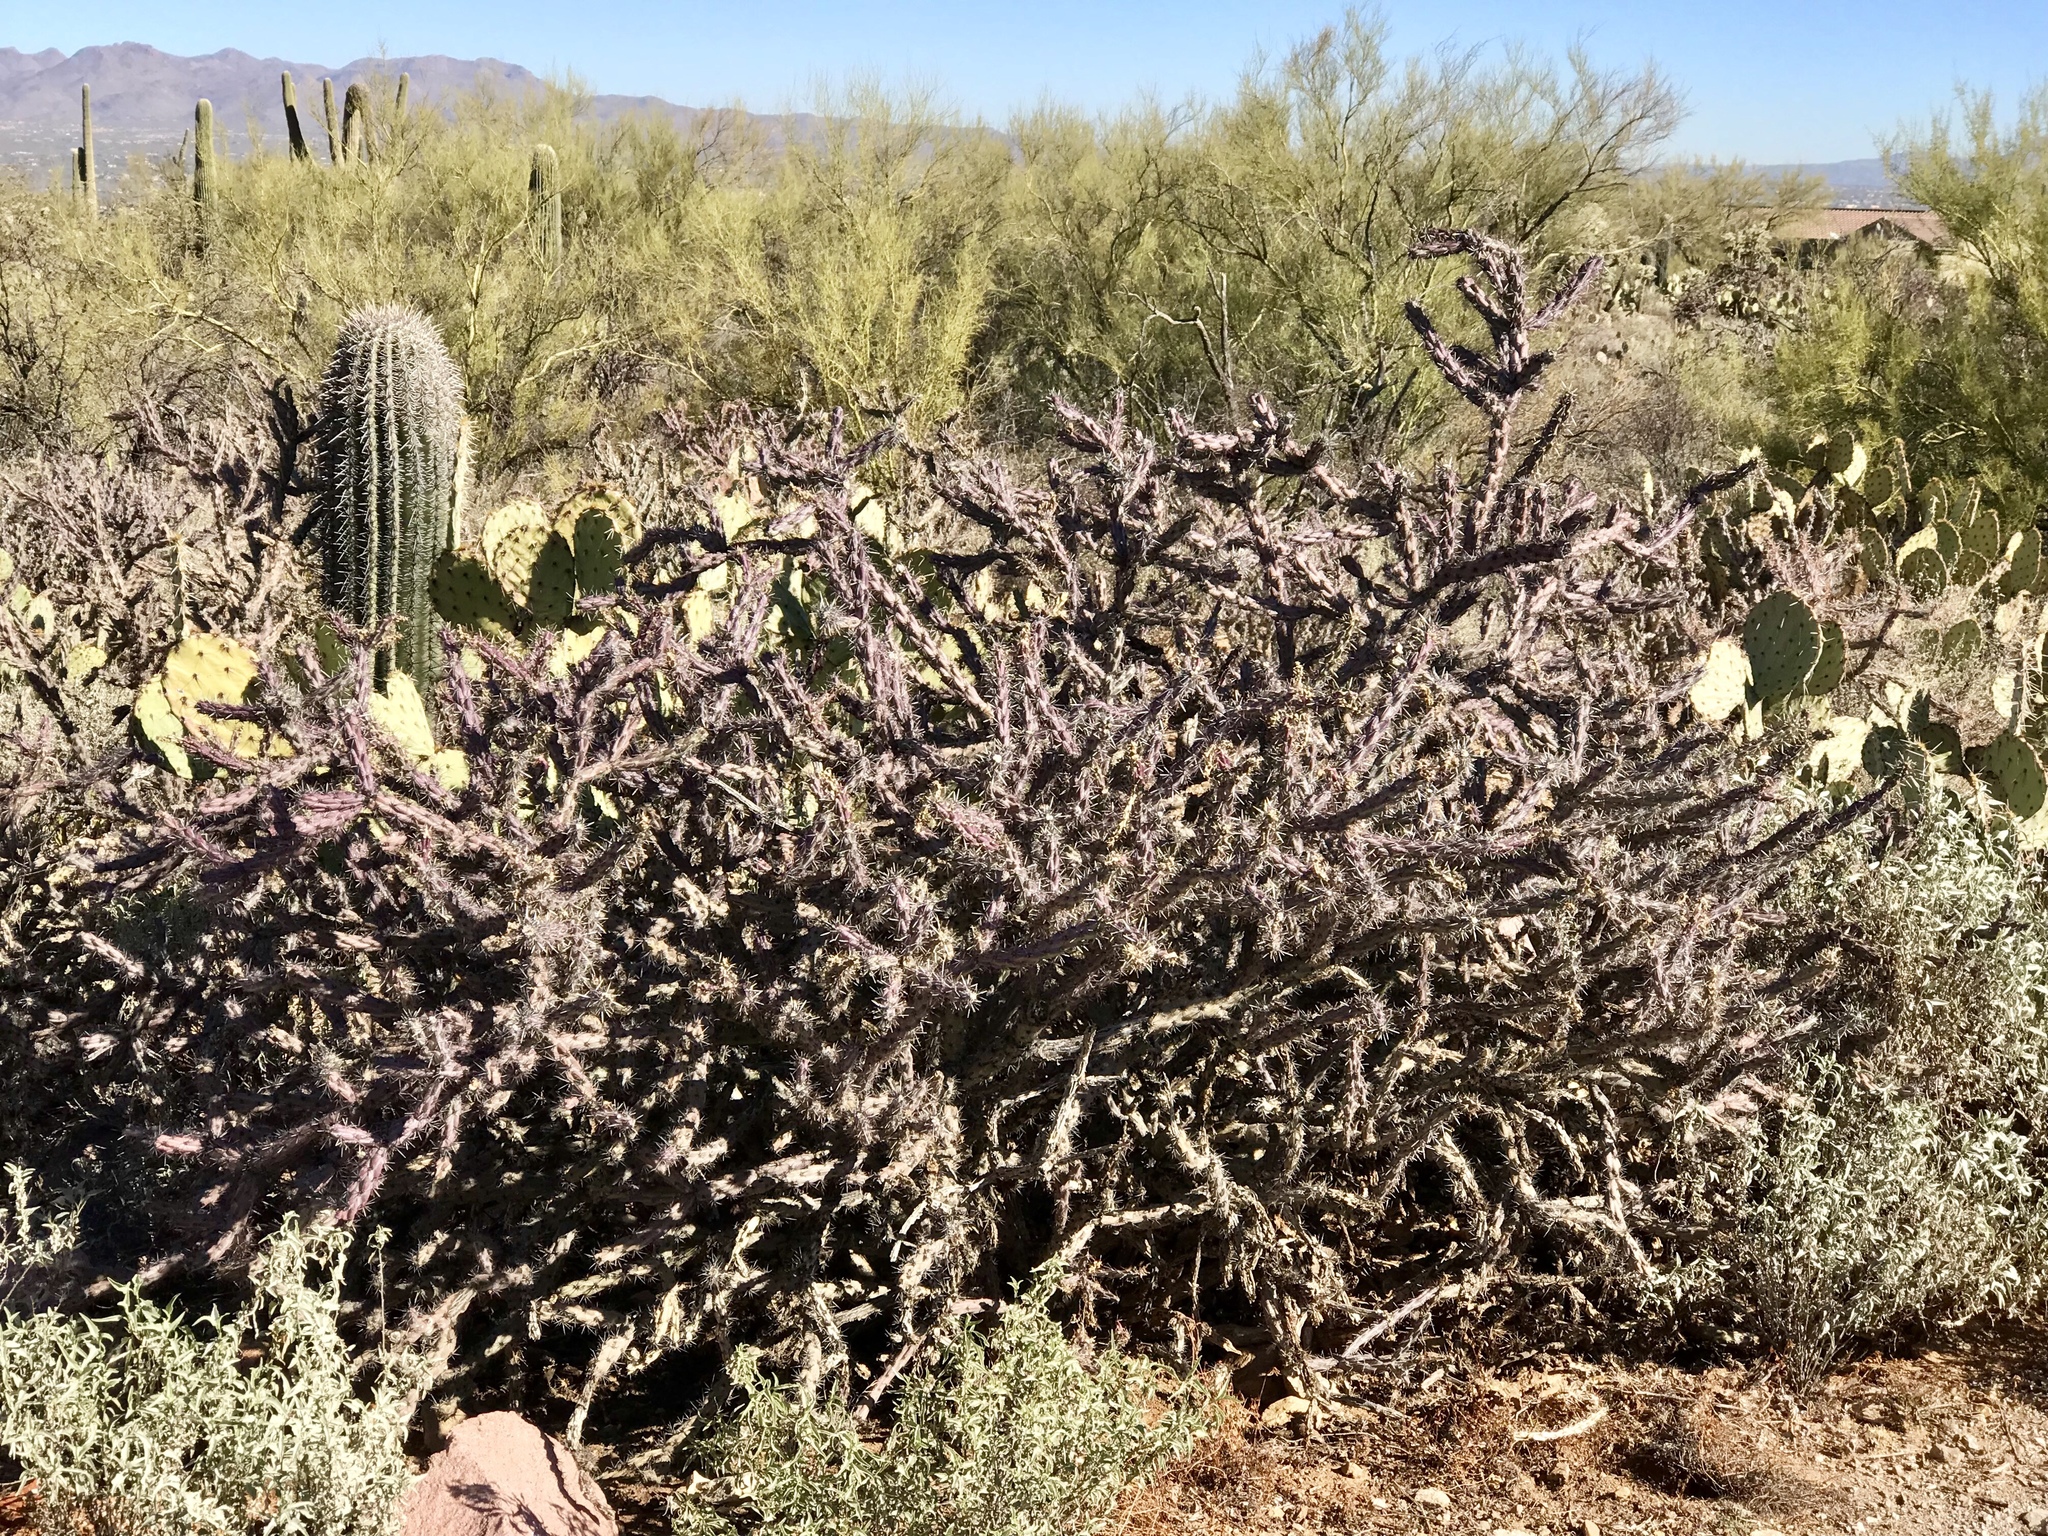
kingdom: Plantae
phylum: Tracheophyta
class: Magnoliopsida
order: Caryophyllales
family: Cactaceae
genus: Cylindropuntia
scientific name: Cylindropuntia thurberi
